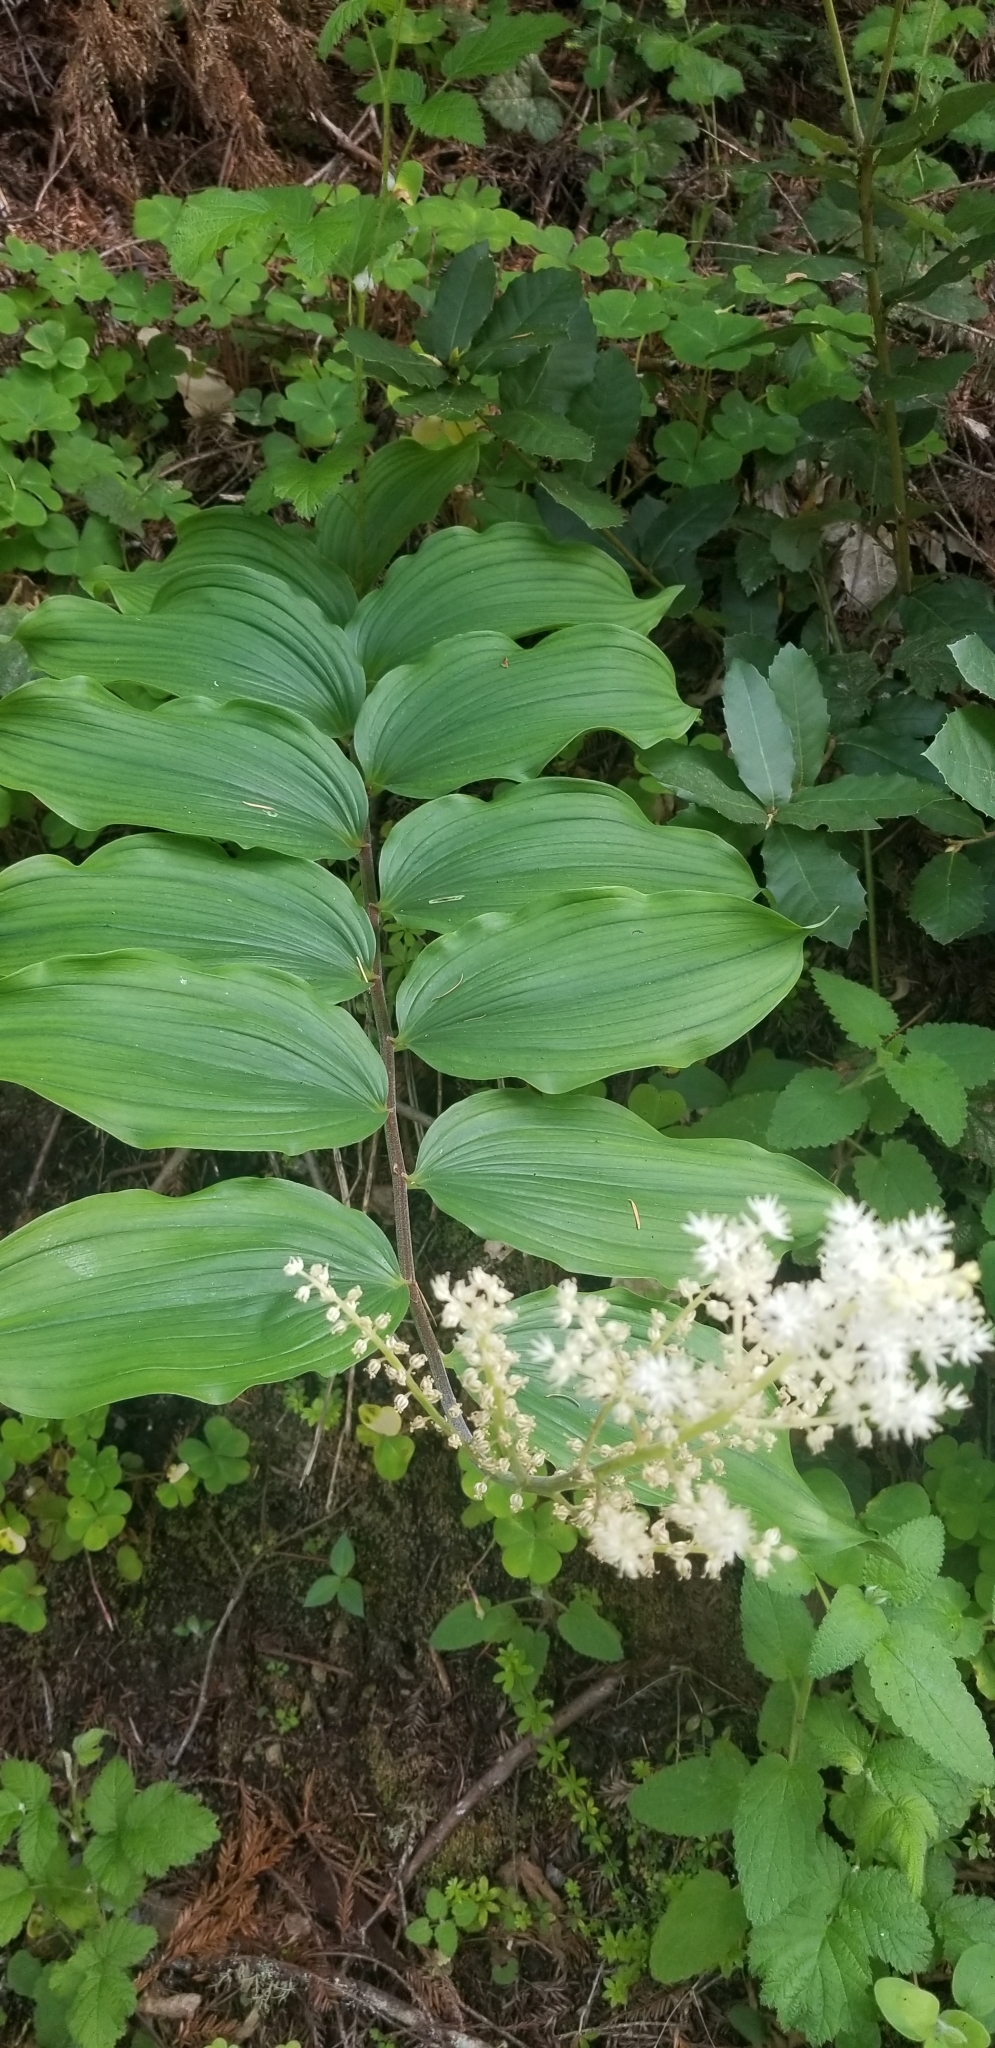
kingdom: Plantae
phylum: Tracheophyta
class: Liliopsida
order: Asparagales
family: Asparagaceae
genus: Maianthemum
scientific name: Maianthemum racemosum
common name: False spikenard
